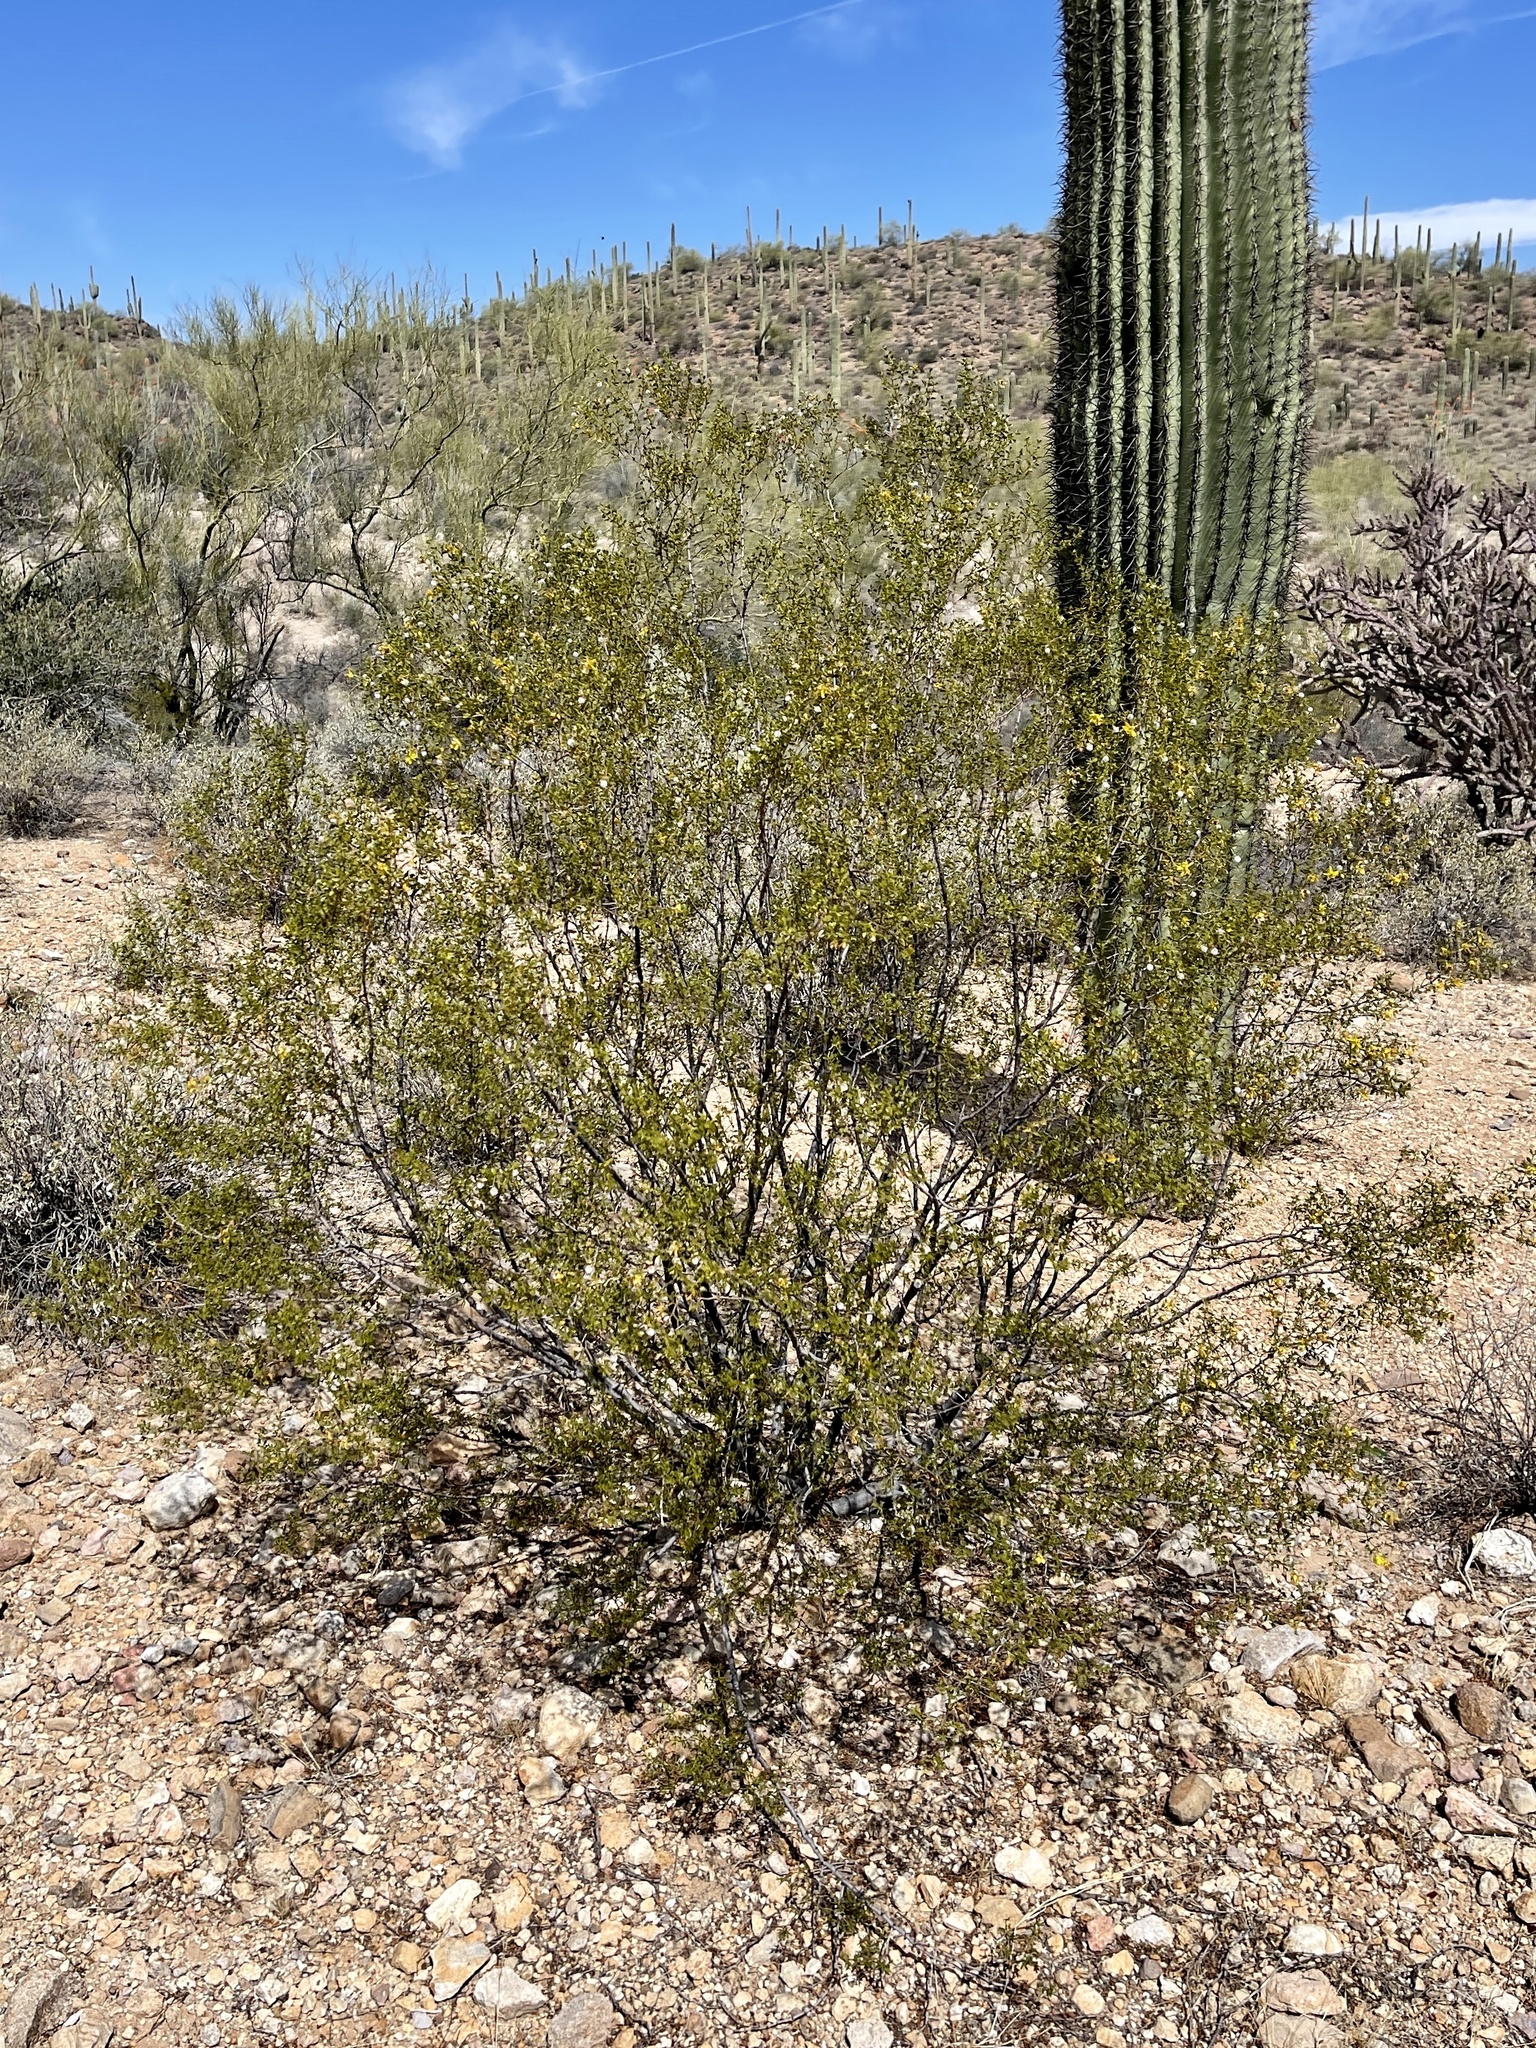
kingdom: Plantae
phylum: Tracheophyta
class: Magnoliopsida
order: Zygophyllales
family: Zygophyllaceae
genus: Larrea
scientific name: Larrea tridentata
